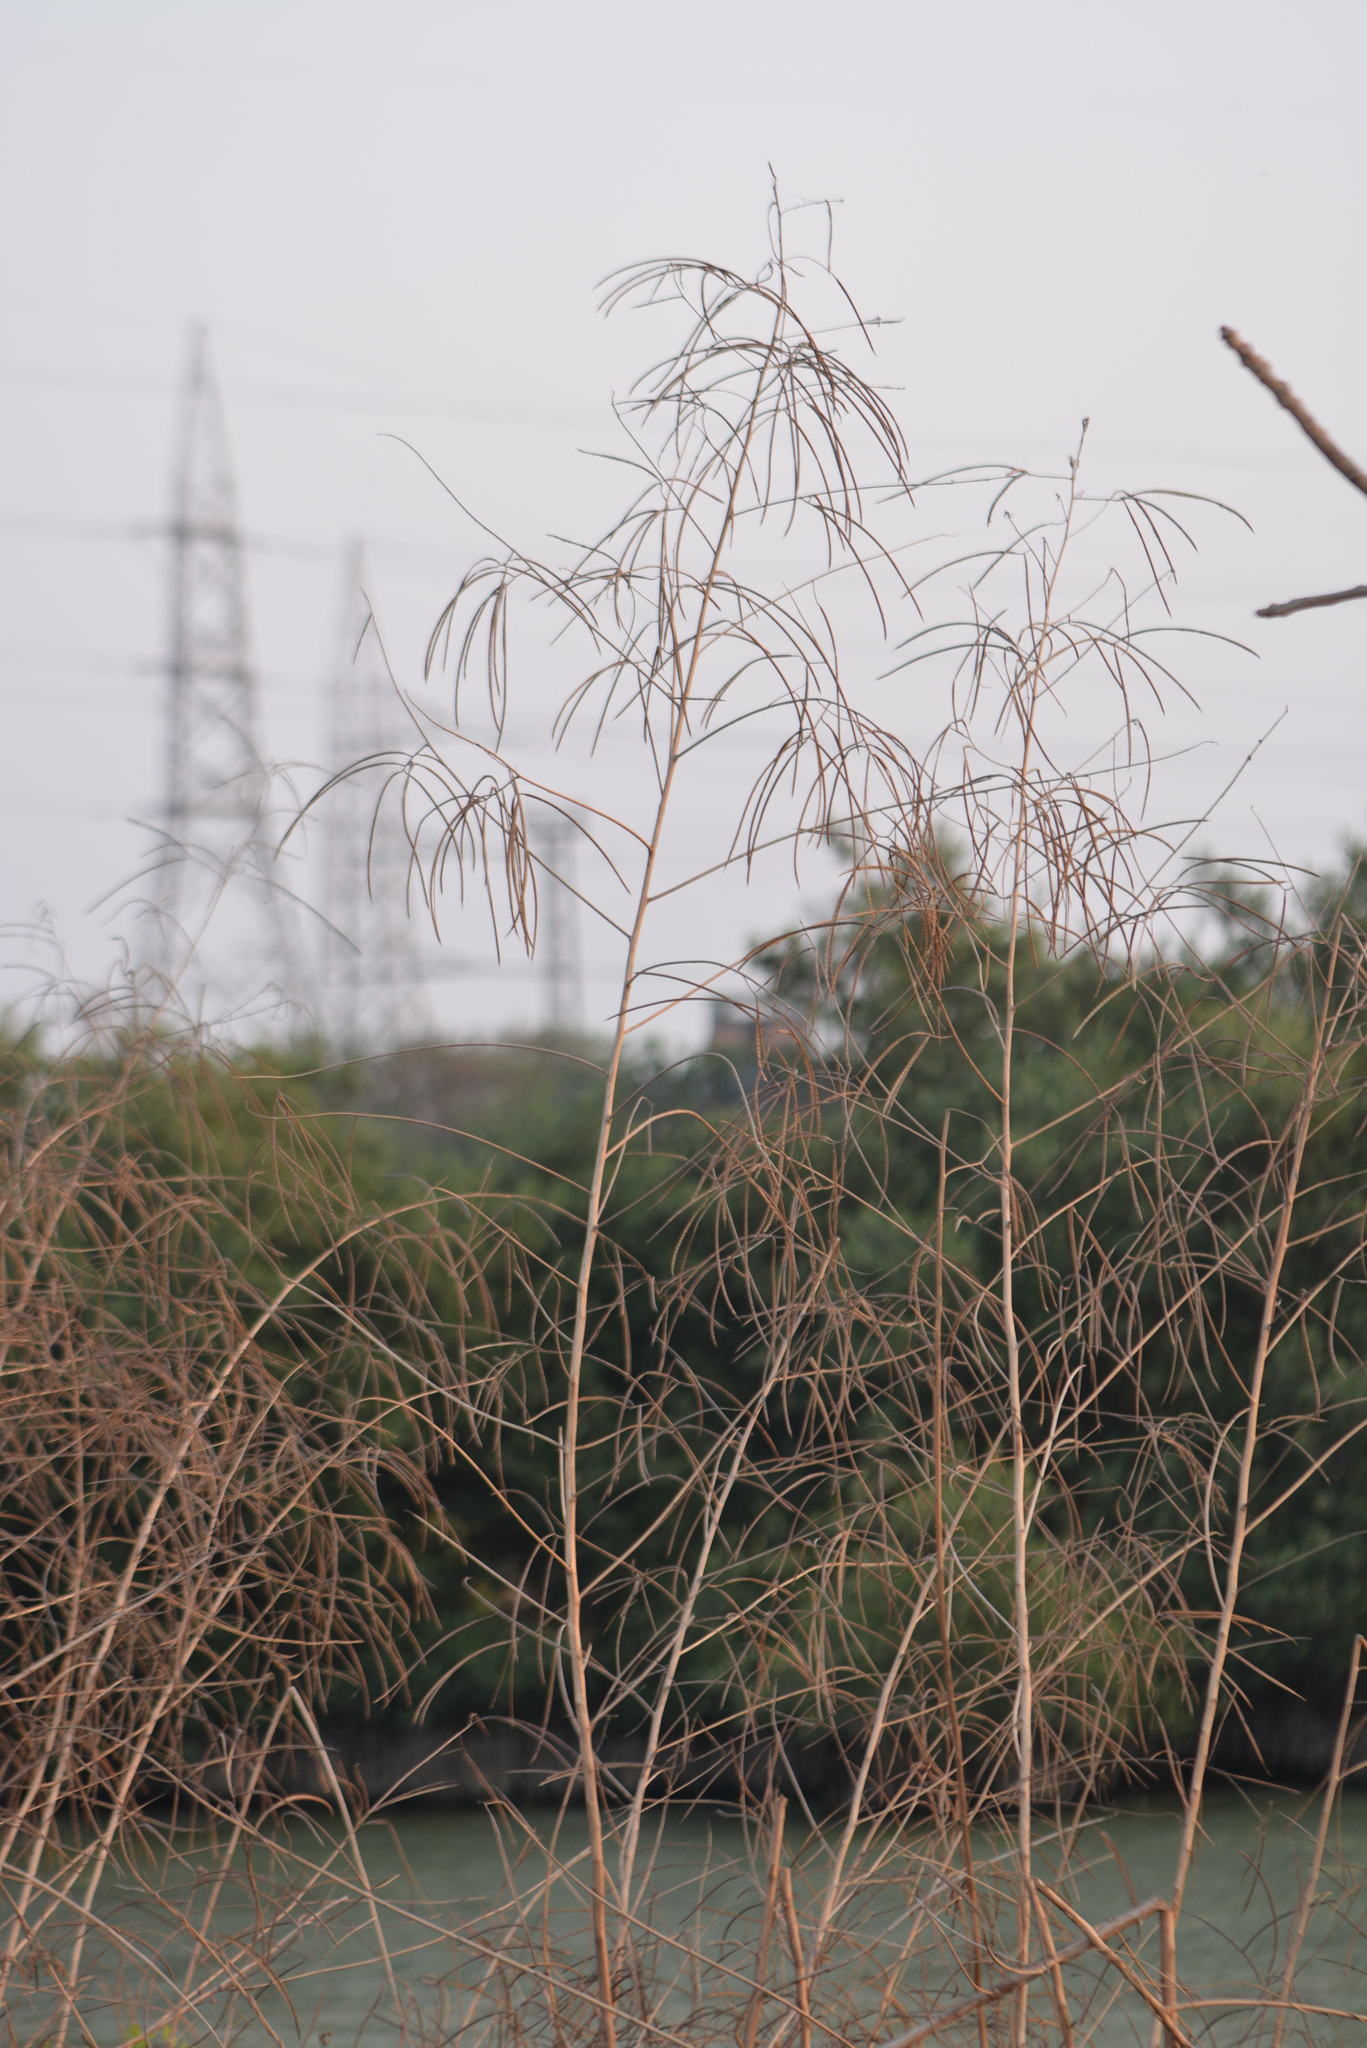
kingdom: Plantae
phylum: Tracheophyta
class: Magnoliopsida
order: Fabales
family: Fabaceae
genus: Sesbania
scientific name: Sesbania bispinosa
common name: Sesbania pea
